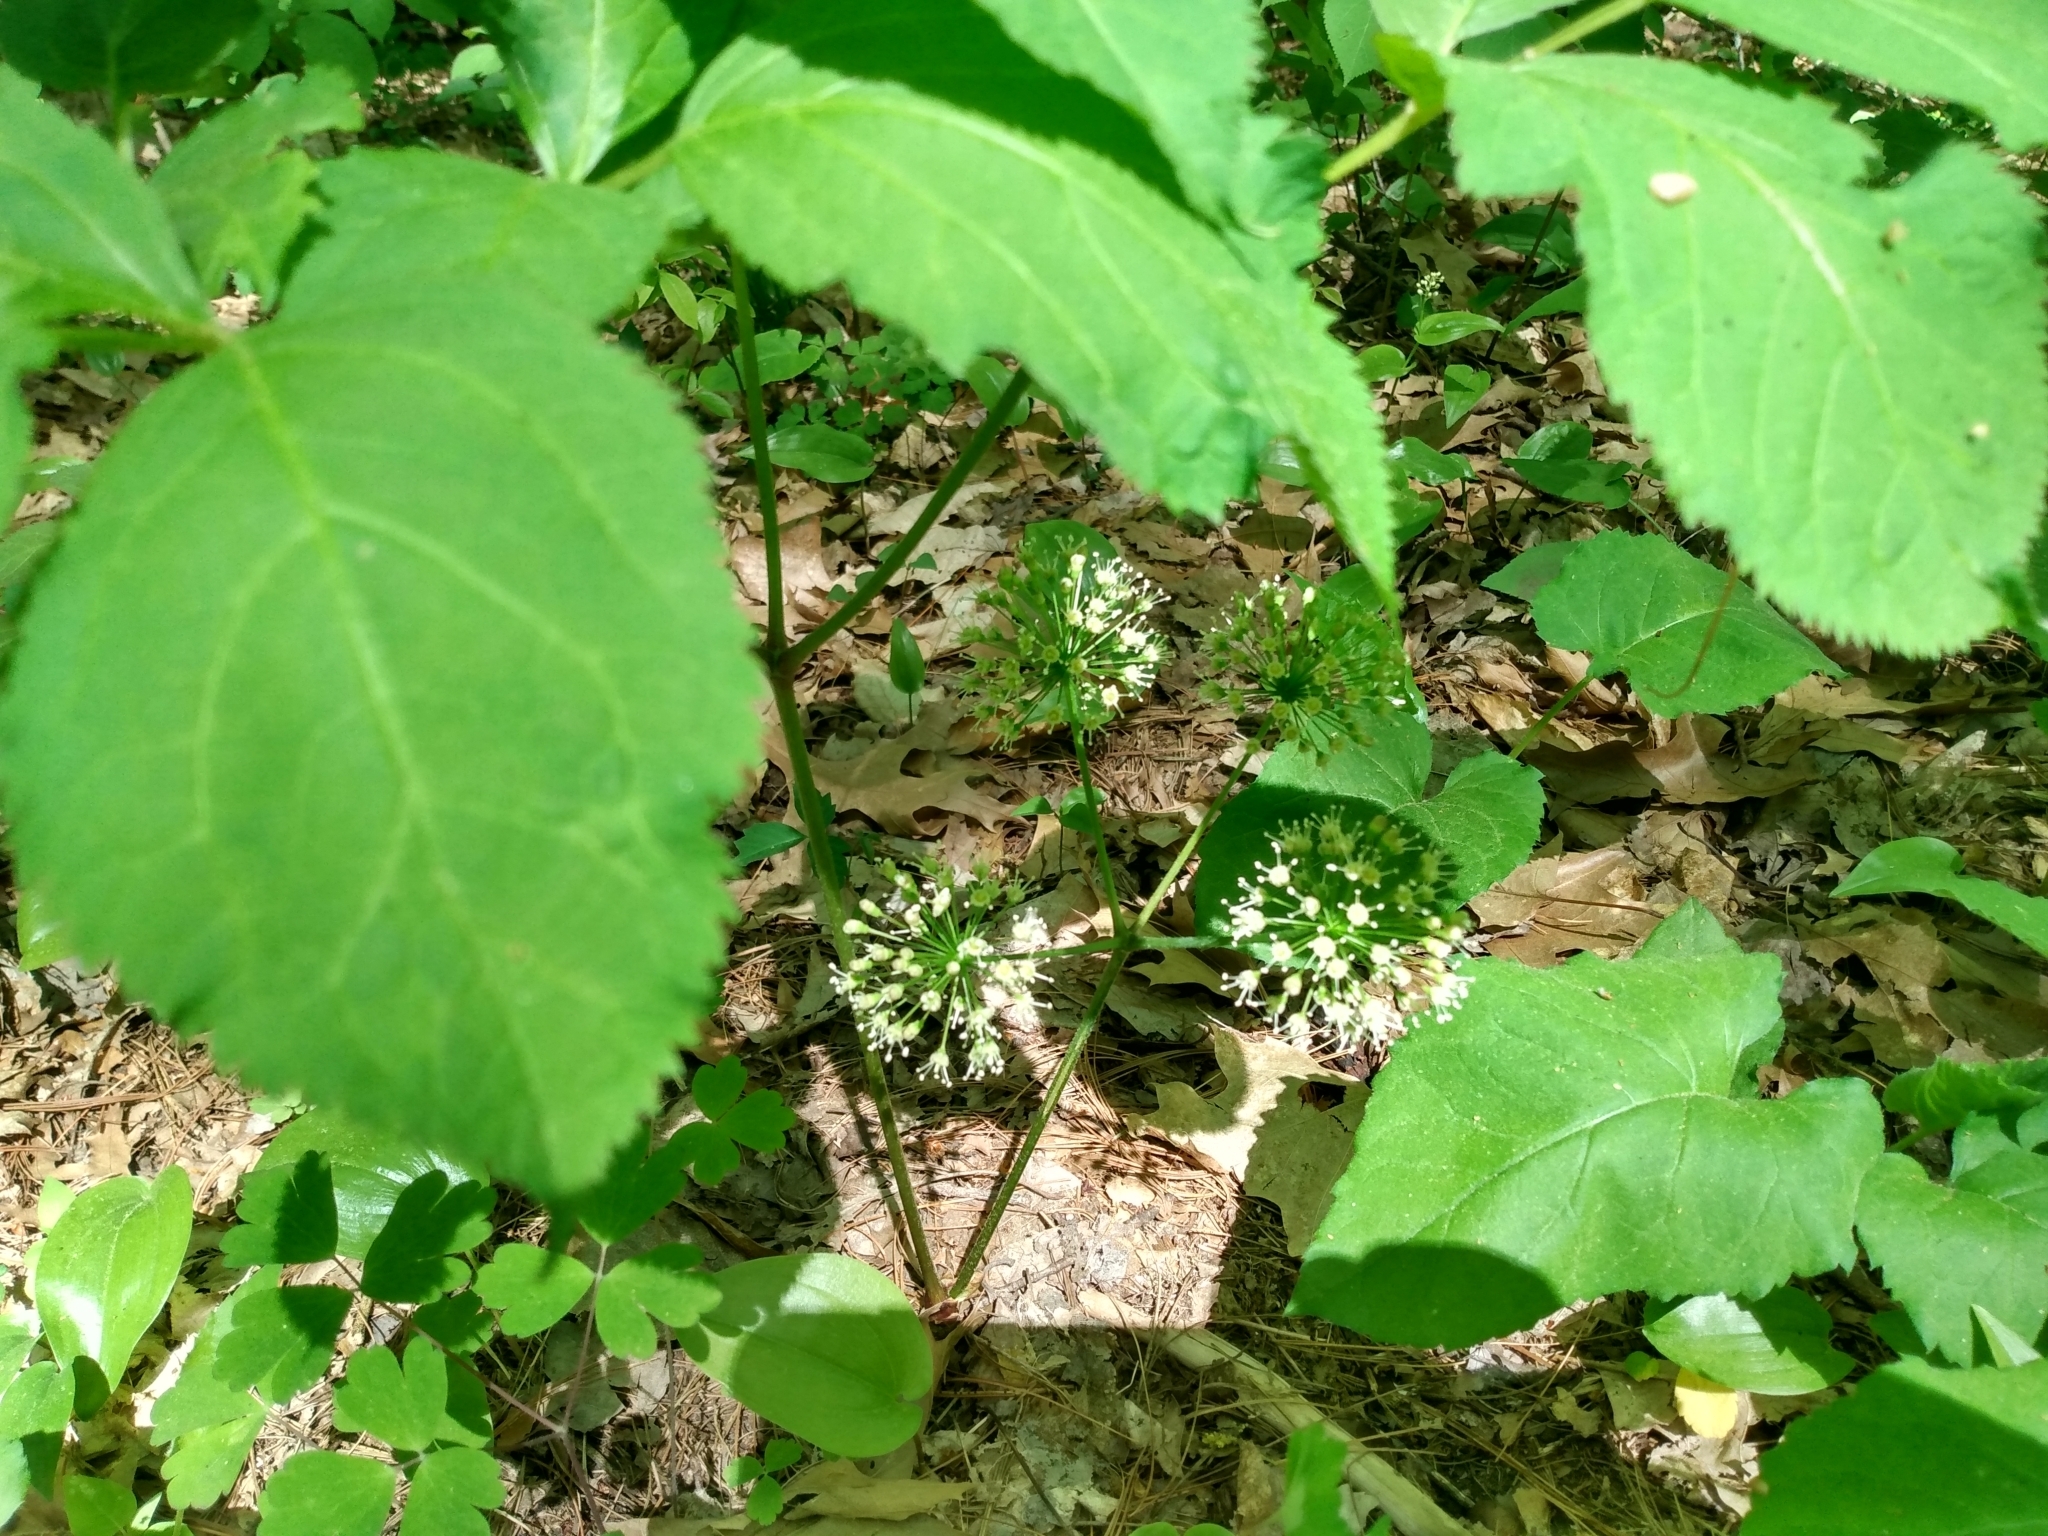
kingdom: Plantae
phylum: Tracheophyta
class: Magnoliopsida
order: Apiales
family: Araliaceae
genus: Aralia
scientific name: Aralia nudicaulis
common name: Wild sarsaparilla
